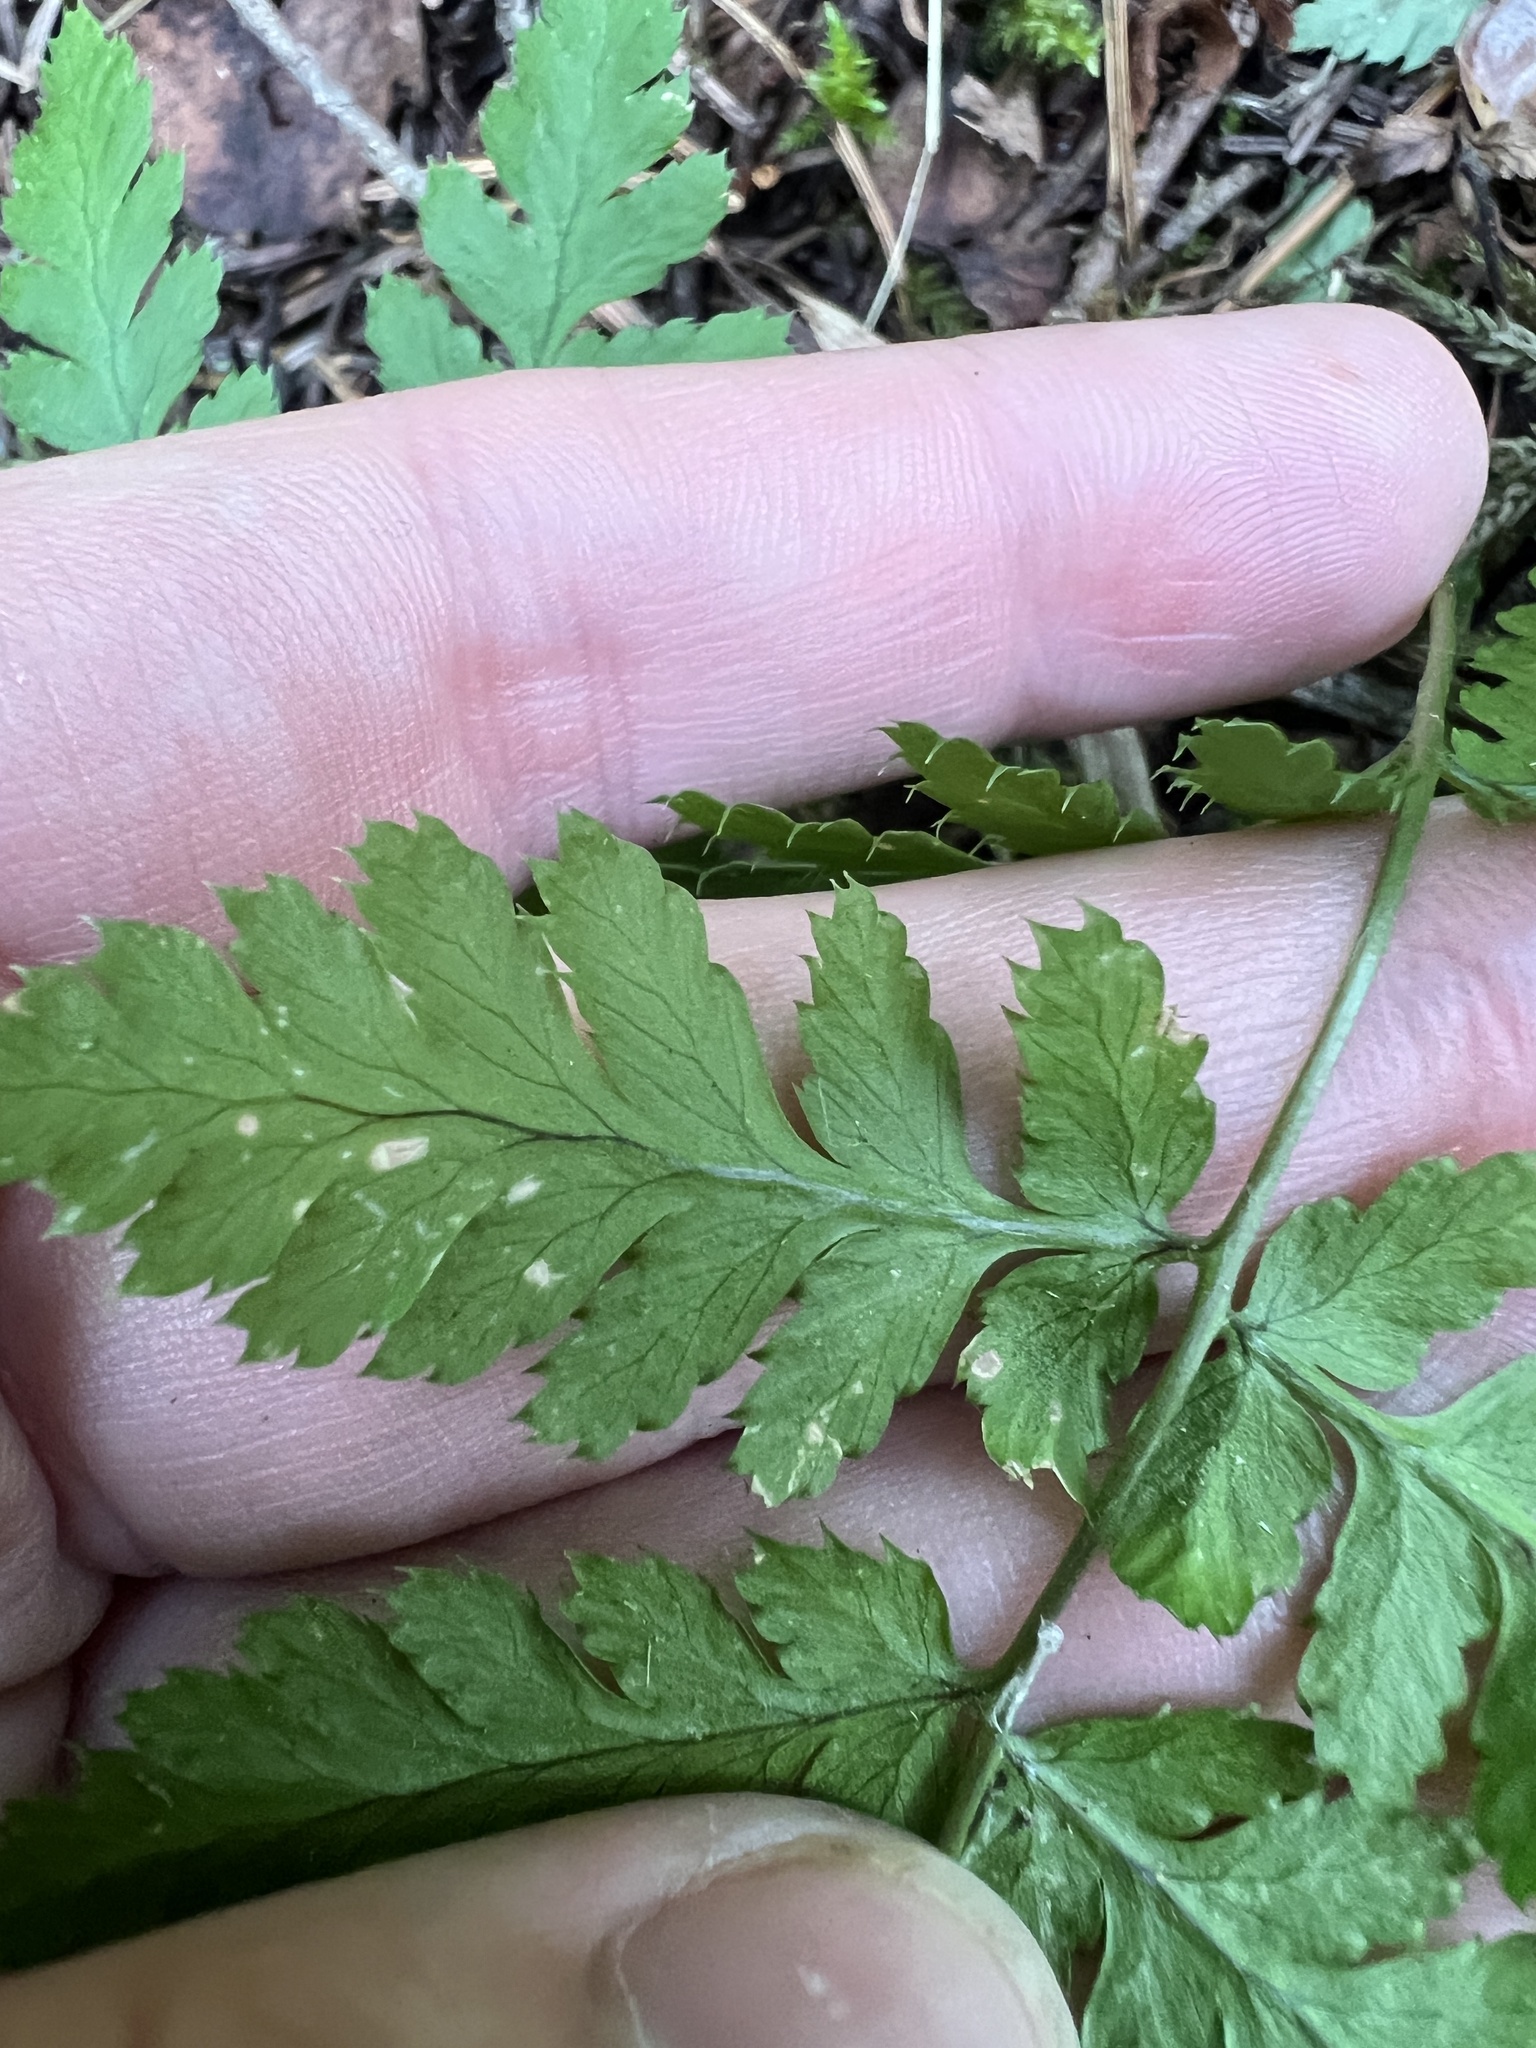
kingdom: Plantae
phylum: Tracheophyta
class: Polypodiopsida
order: Polypodiales
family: Dryopteridaceae
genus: Dryopteris
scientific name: Dryopteris carthusiana
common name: Narrow buckler-fern
